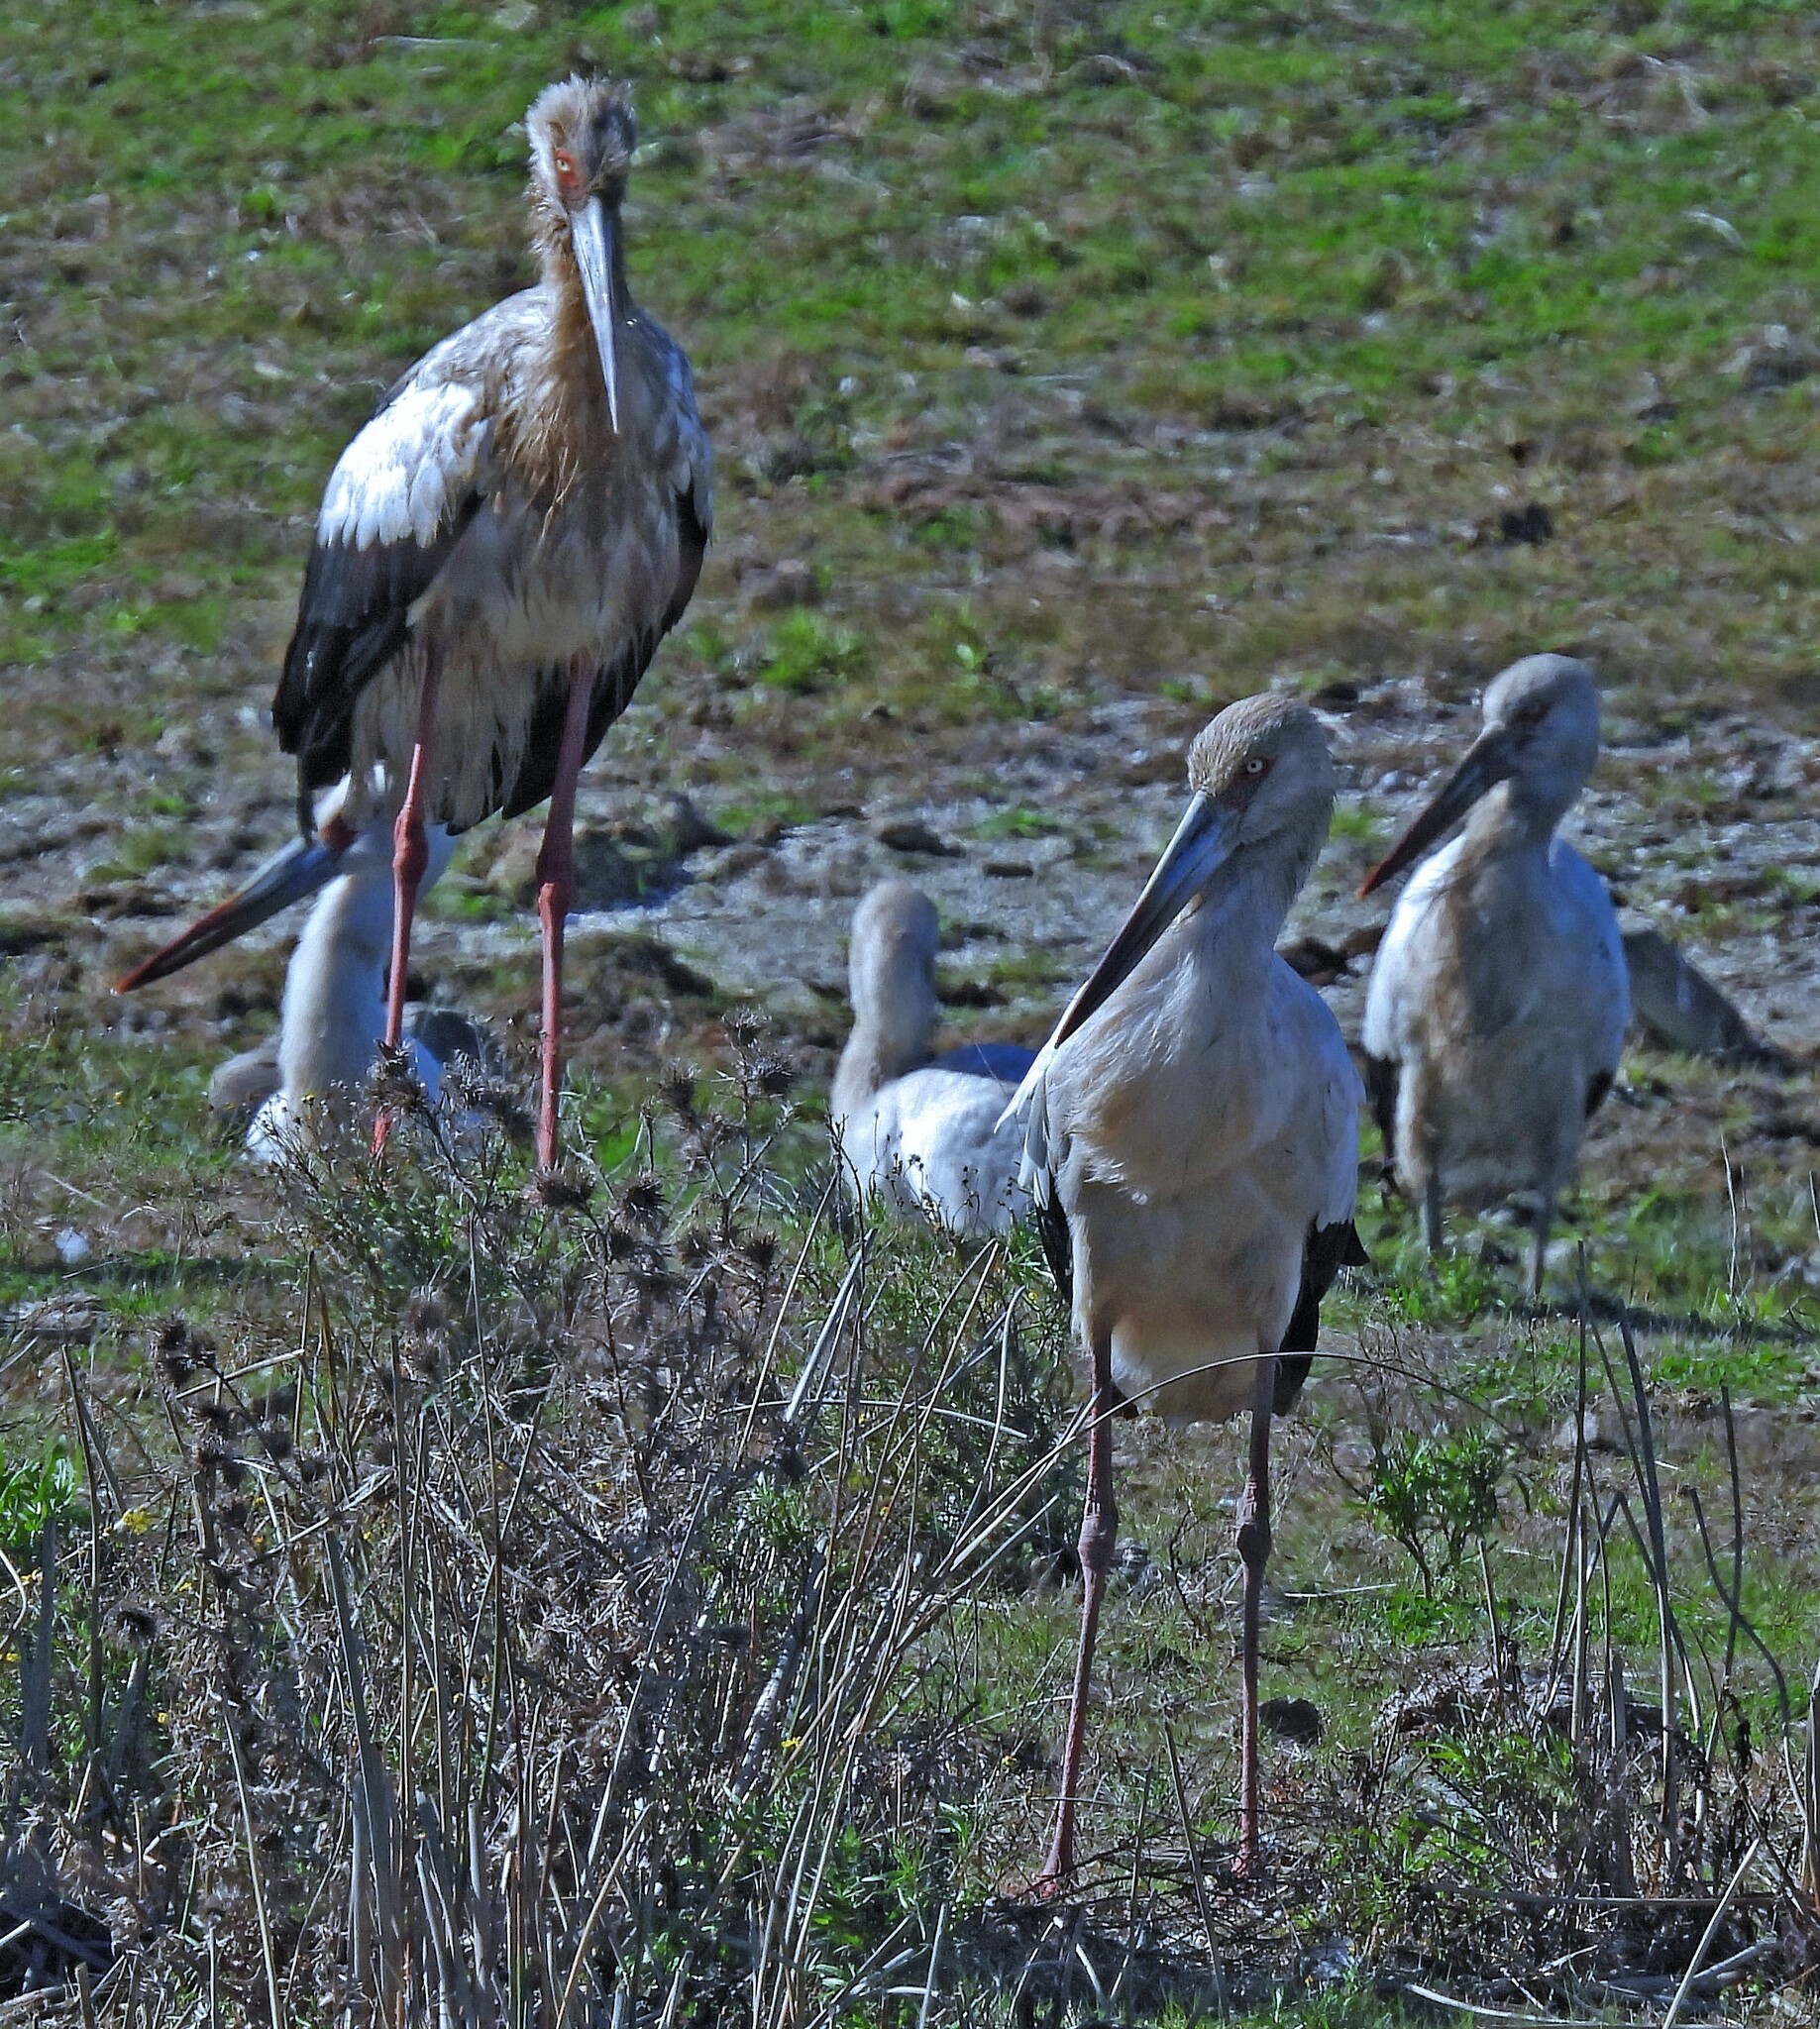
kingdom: Animalia
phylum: Chordata
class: Aves
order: Ciconiiformes
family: Ciconiidae
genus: Ciconia
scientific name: Ciconia maguari
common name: Maguari stork
